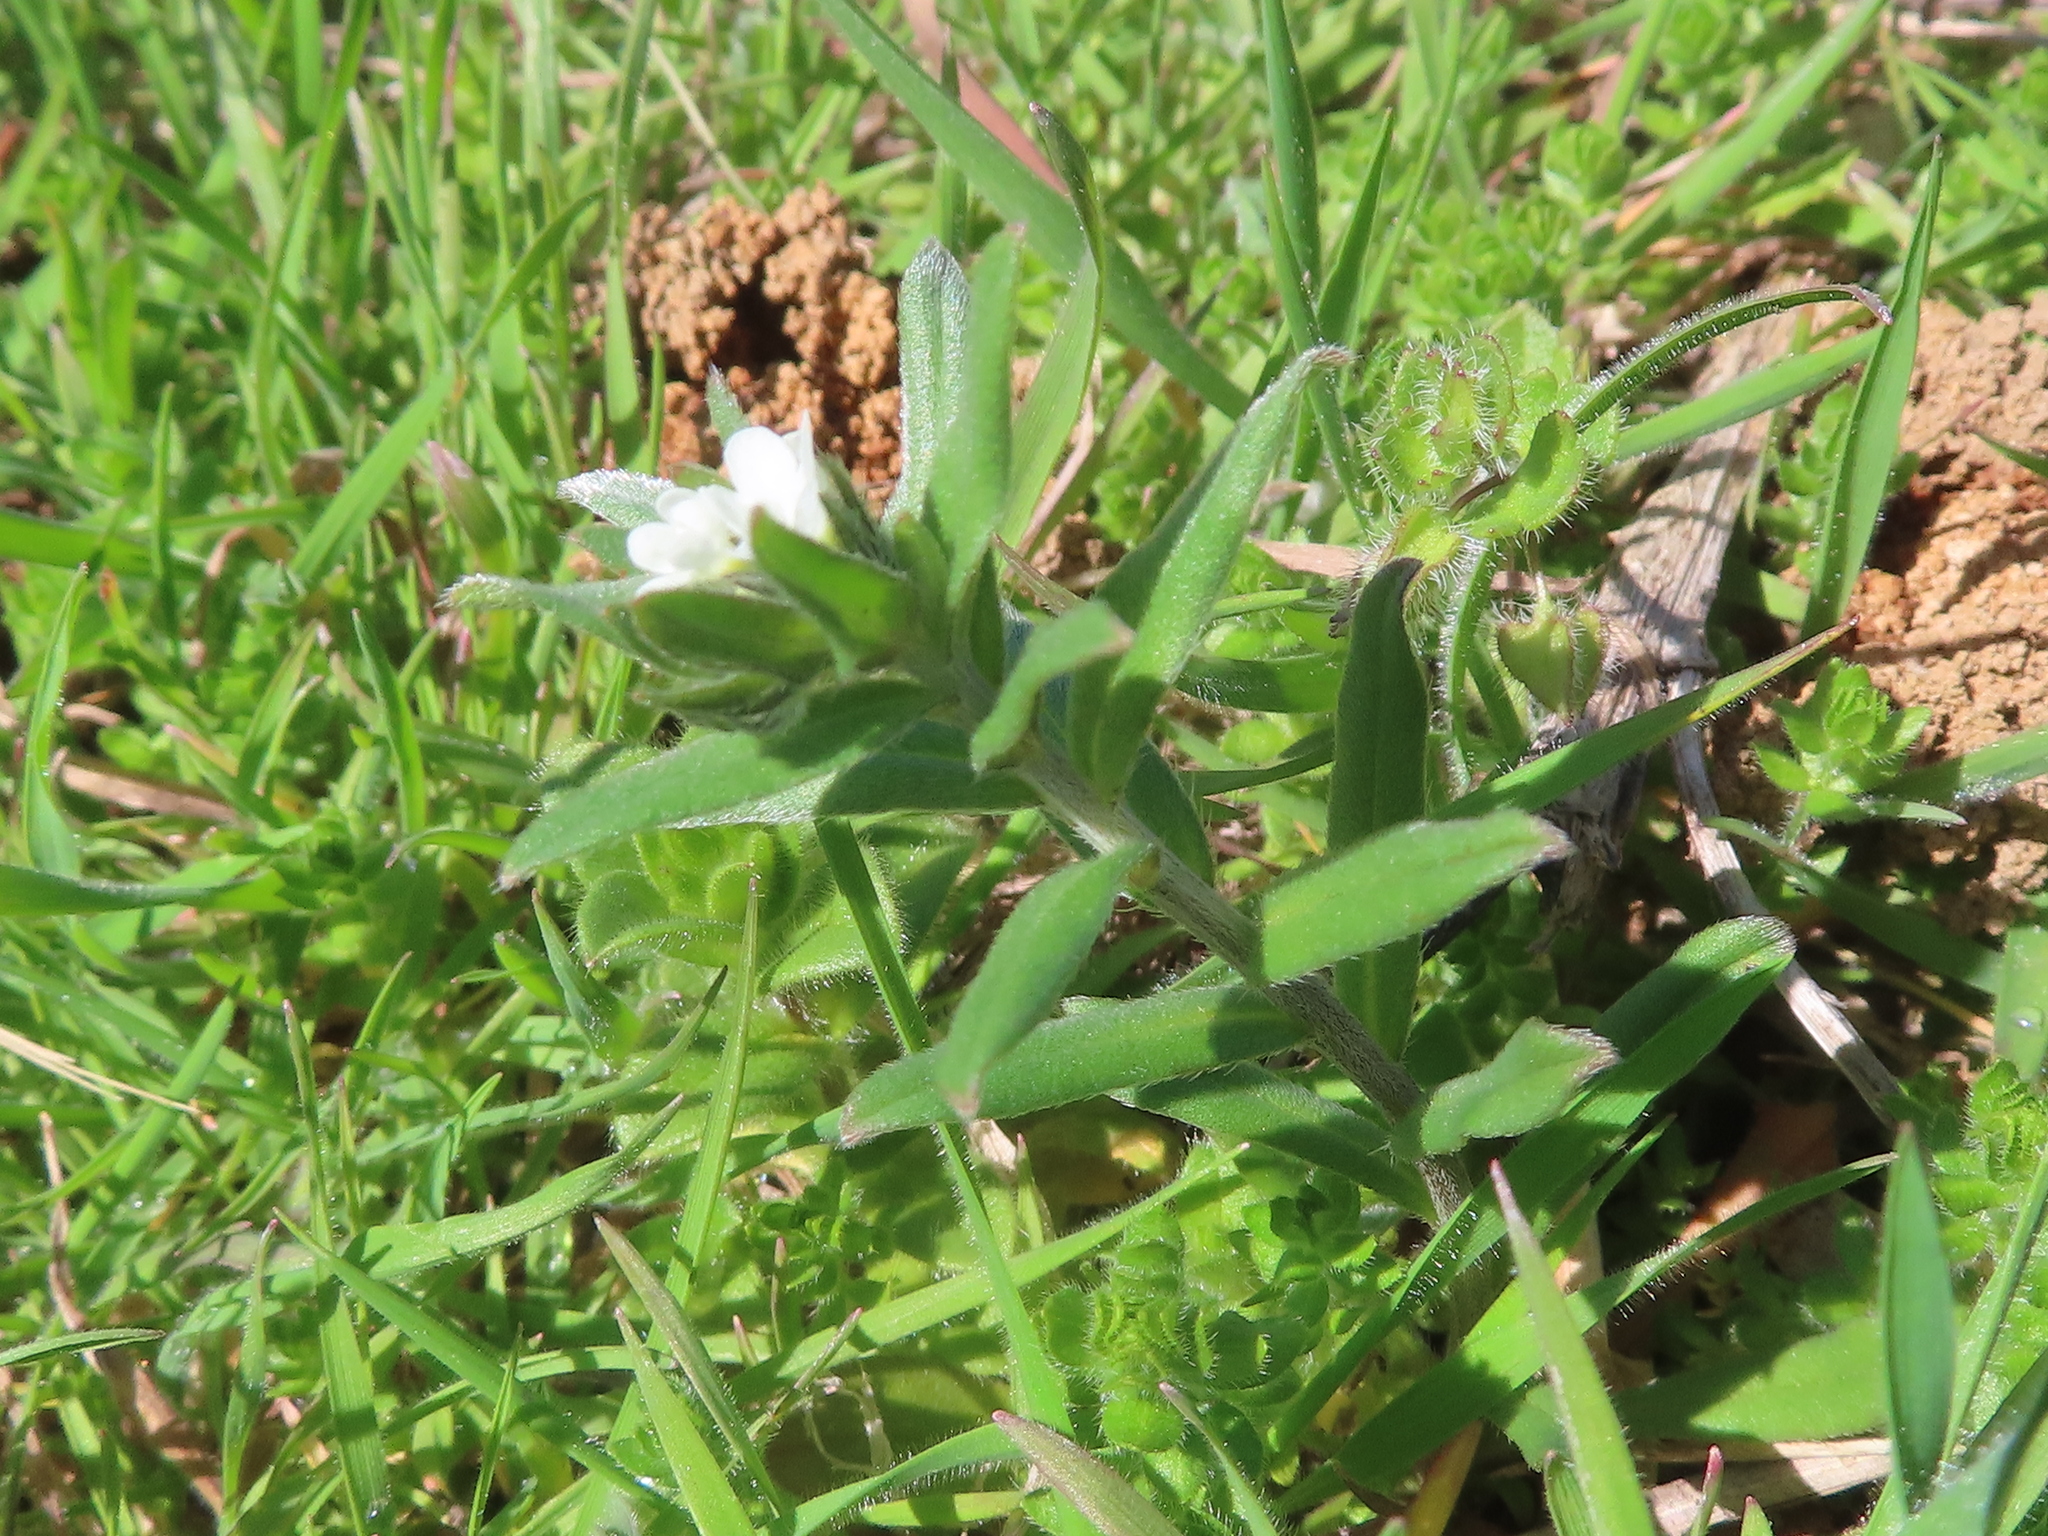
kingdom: Plantae
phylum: Tracheophyta
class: Magnoliopsida
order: Boraginales
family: Boraginaceae
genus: Buglossoides
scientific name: Buglossoides arvensis
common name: Corn gromwell
